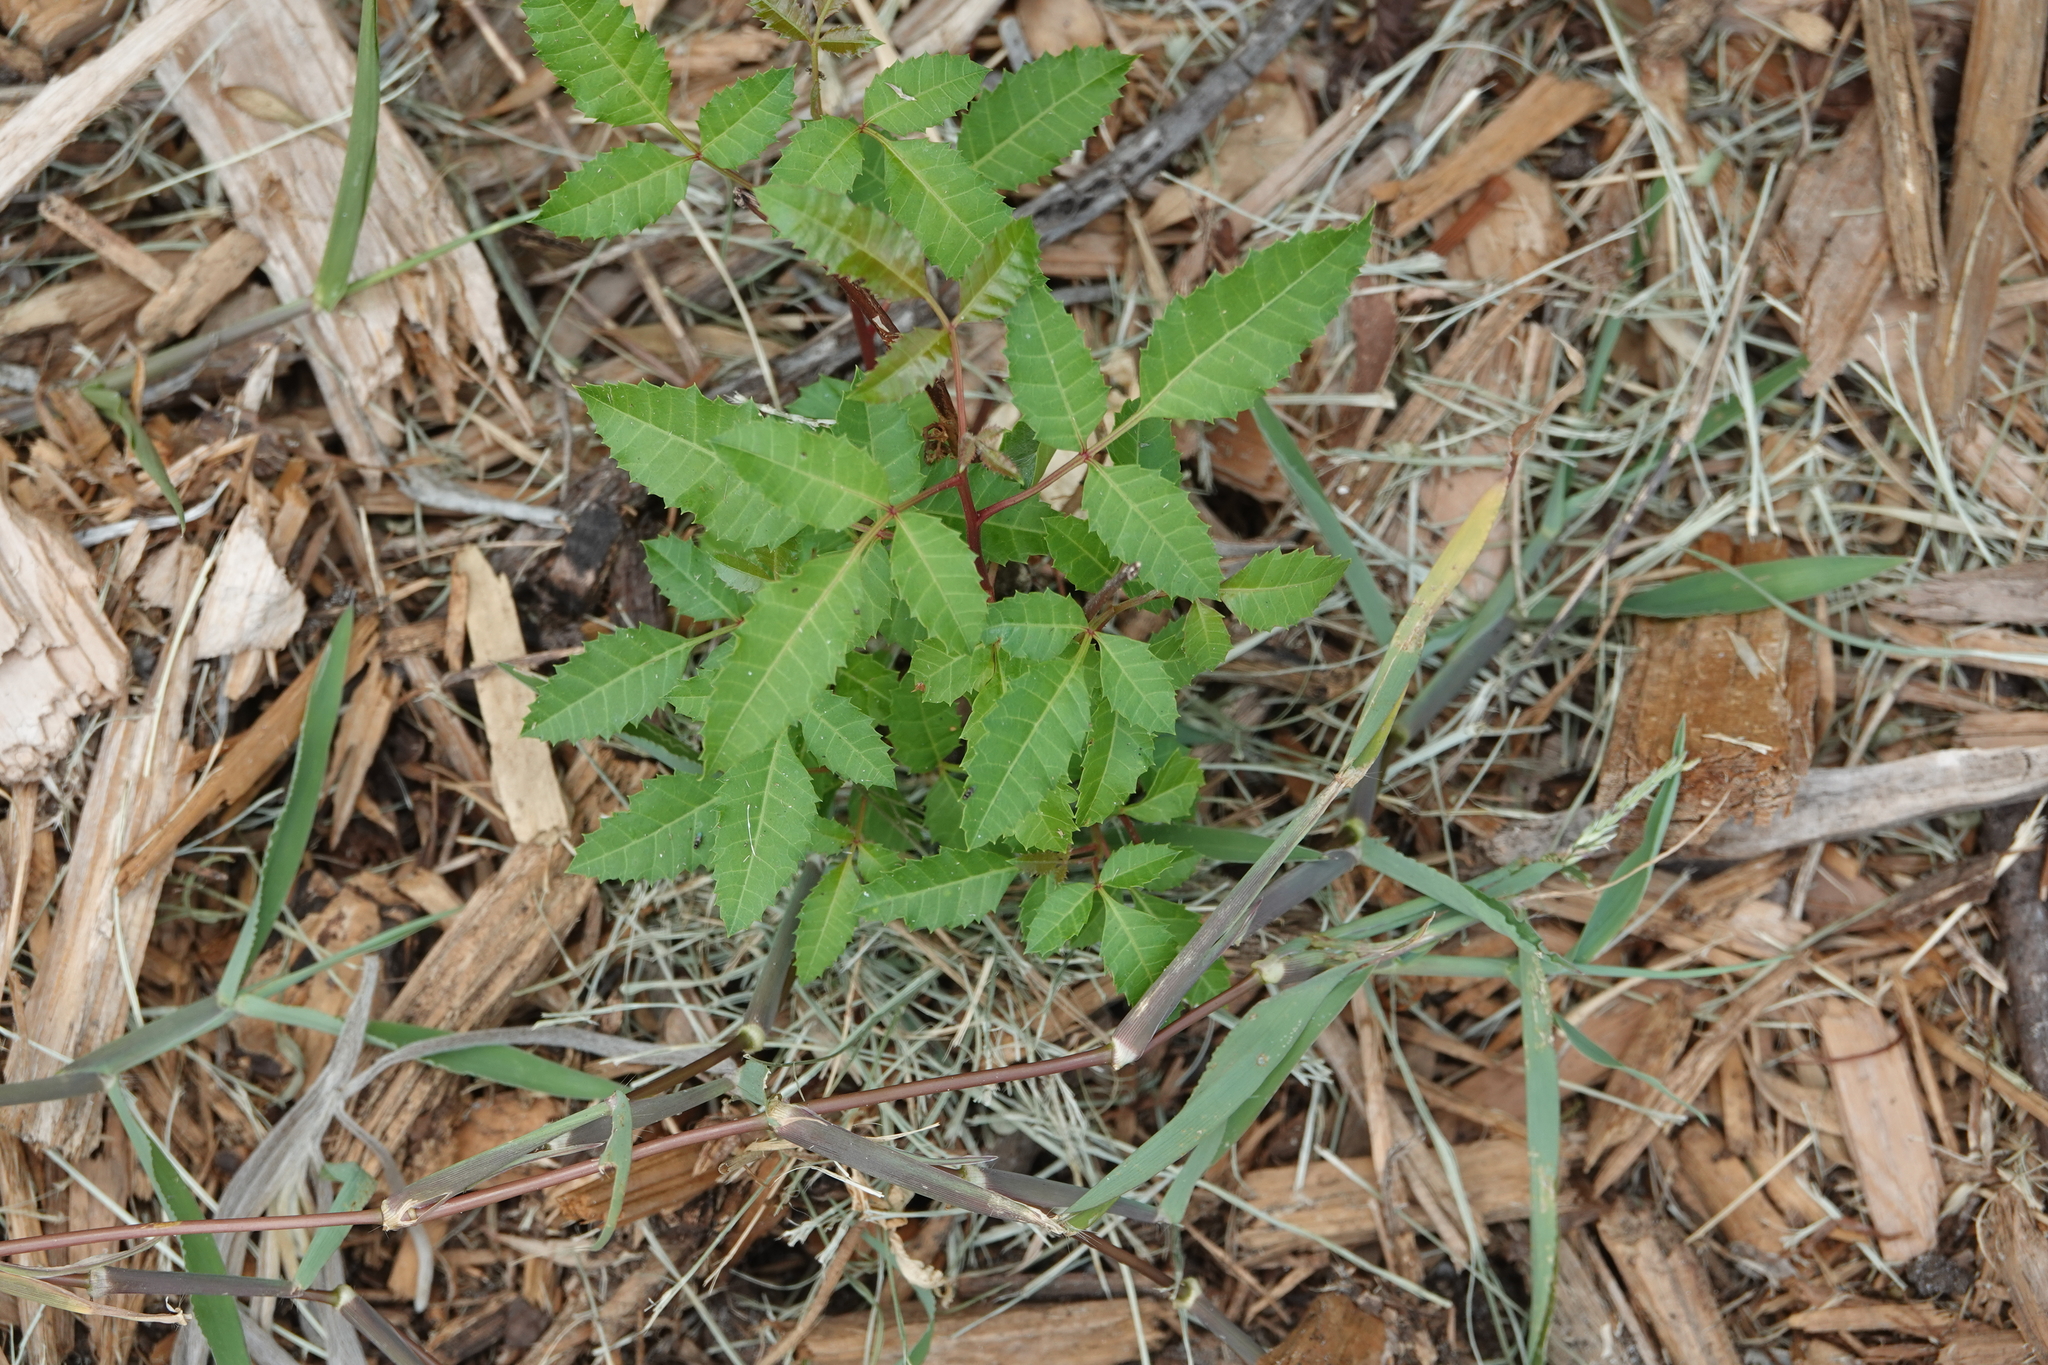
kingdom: Plantae
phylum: Tracheophyta
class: Magnoliopsida
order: Sapindales
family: Anacardiaceae
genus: Schinus
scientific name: Schinus terebinthifolia
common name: Brazilian peppertree
